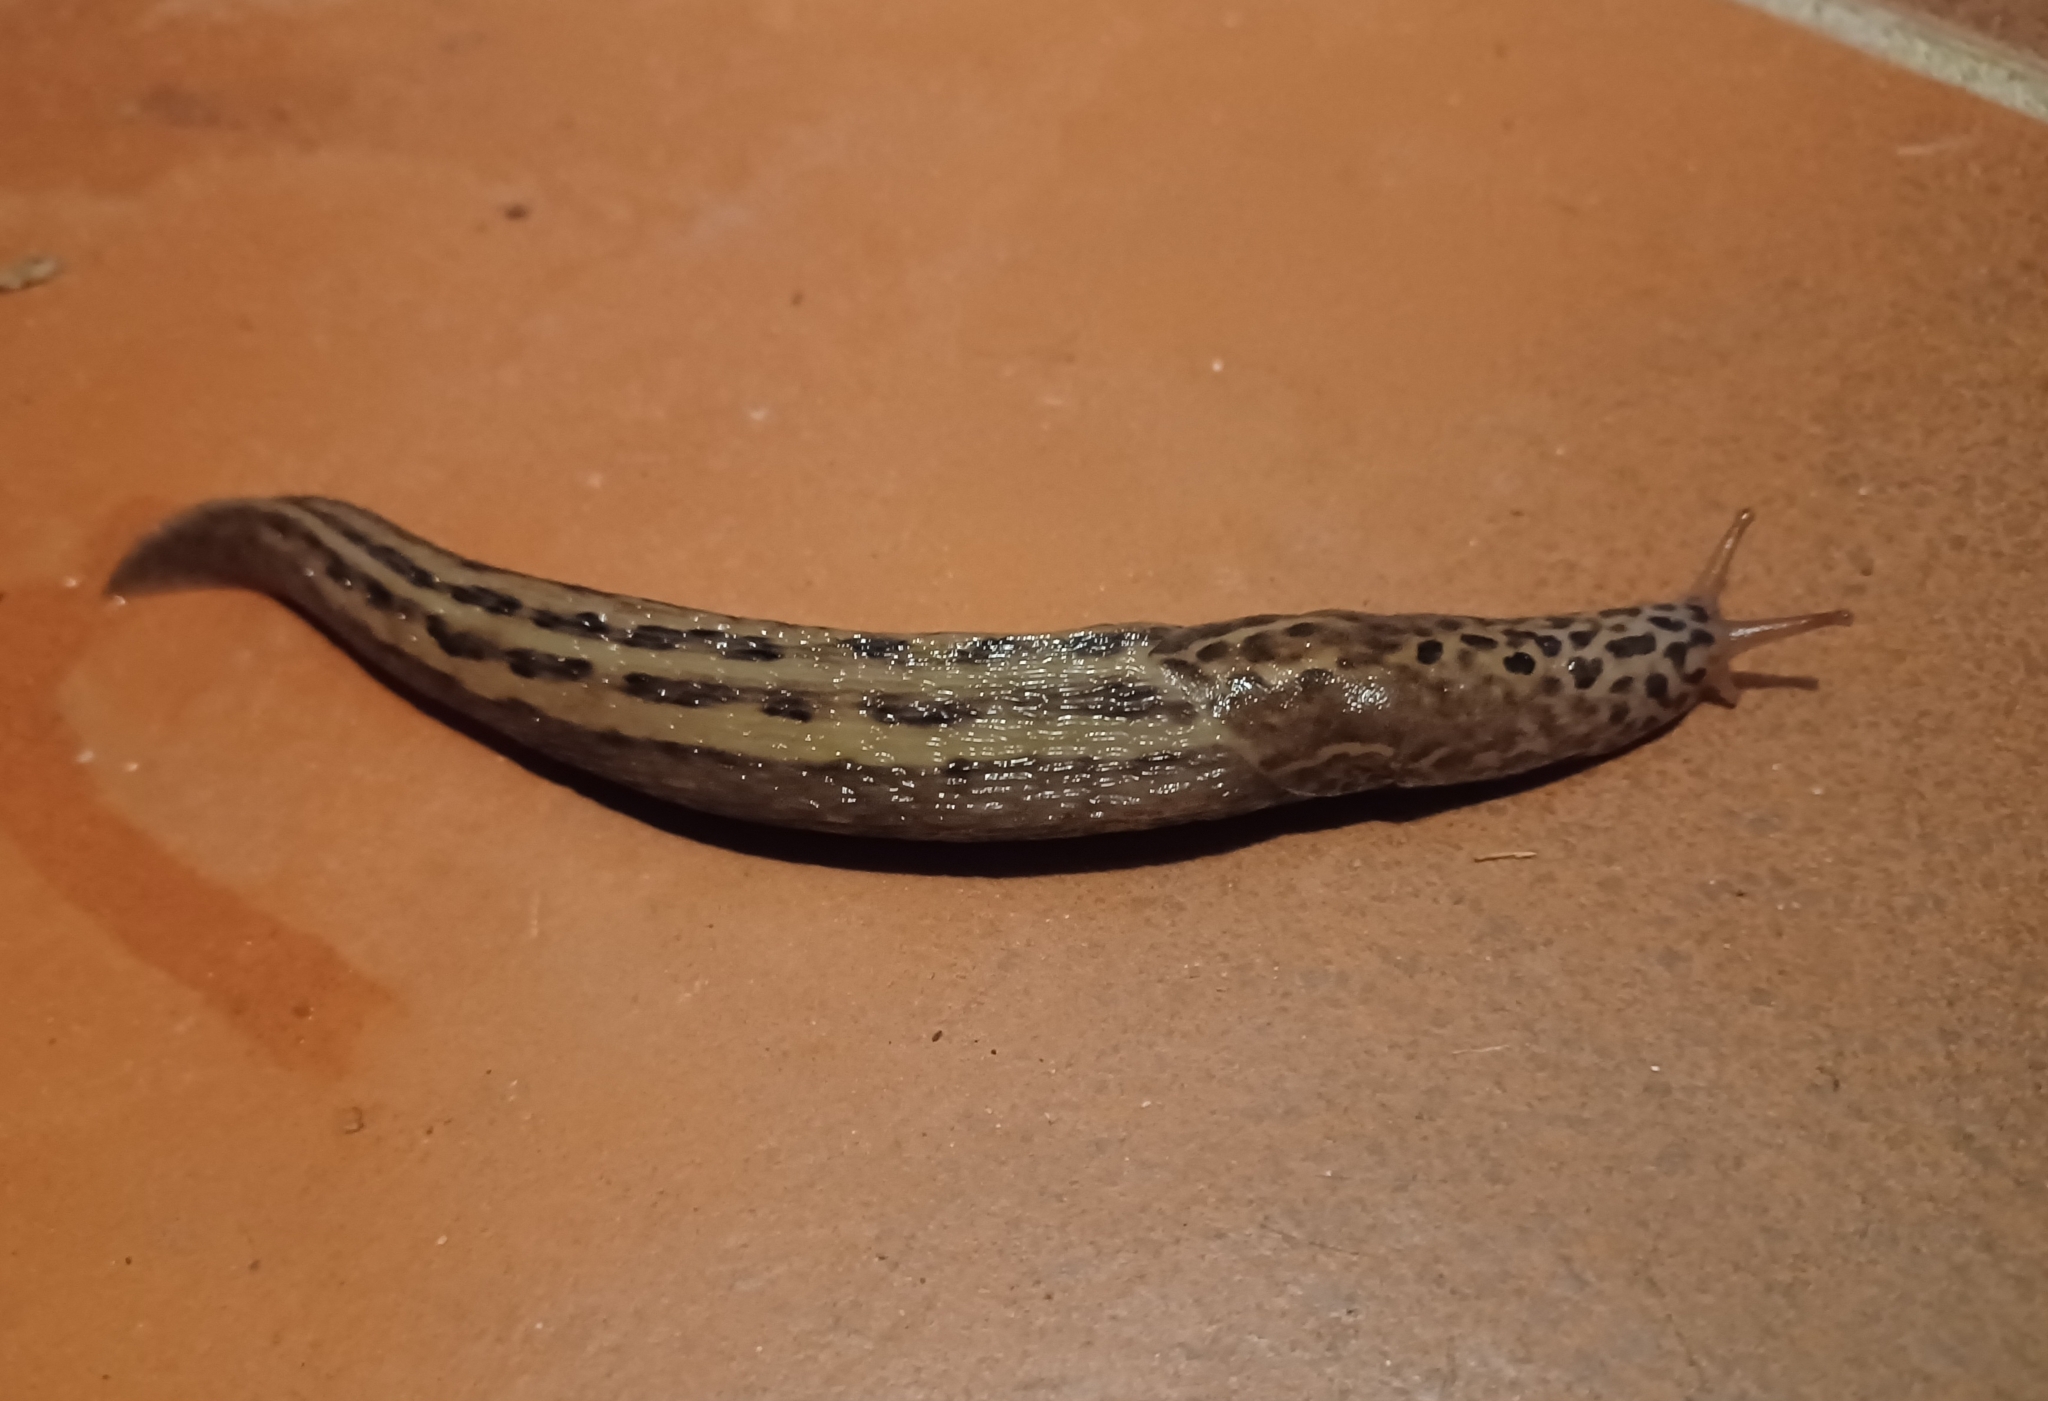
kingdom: Animalia
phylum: Mollusca
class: Gastropoda
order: Stylommatophora
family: Limacidae
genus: Limax
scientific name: Limax maximus
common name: Great grey slug
